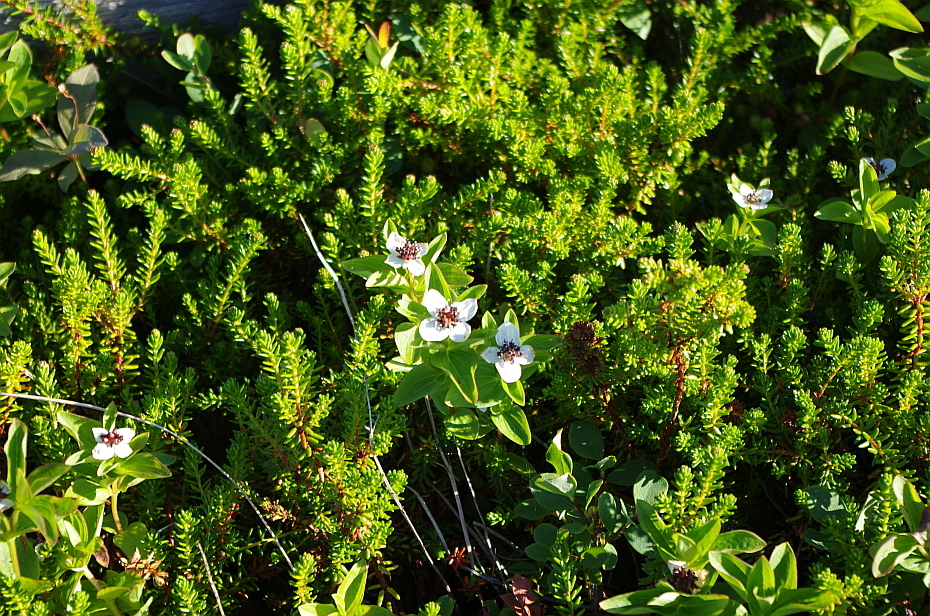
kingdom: Plantae
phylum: Tracheophyta
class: Magnoliopsida
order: Cornales
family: Cornaceae
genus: Cornus
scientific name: Cornus suecica
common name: Dwarf cornel
